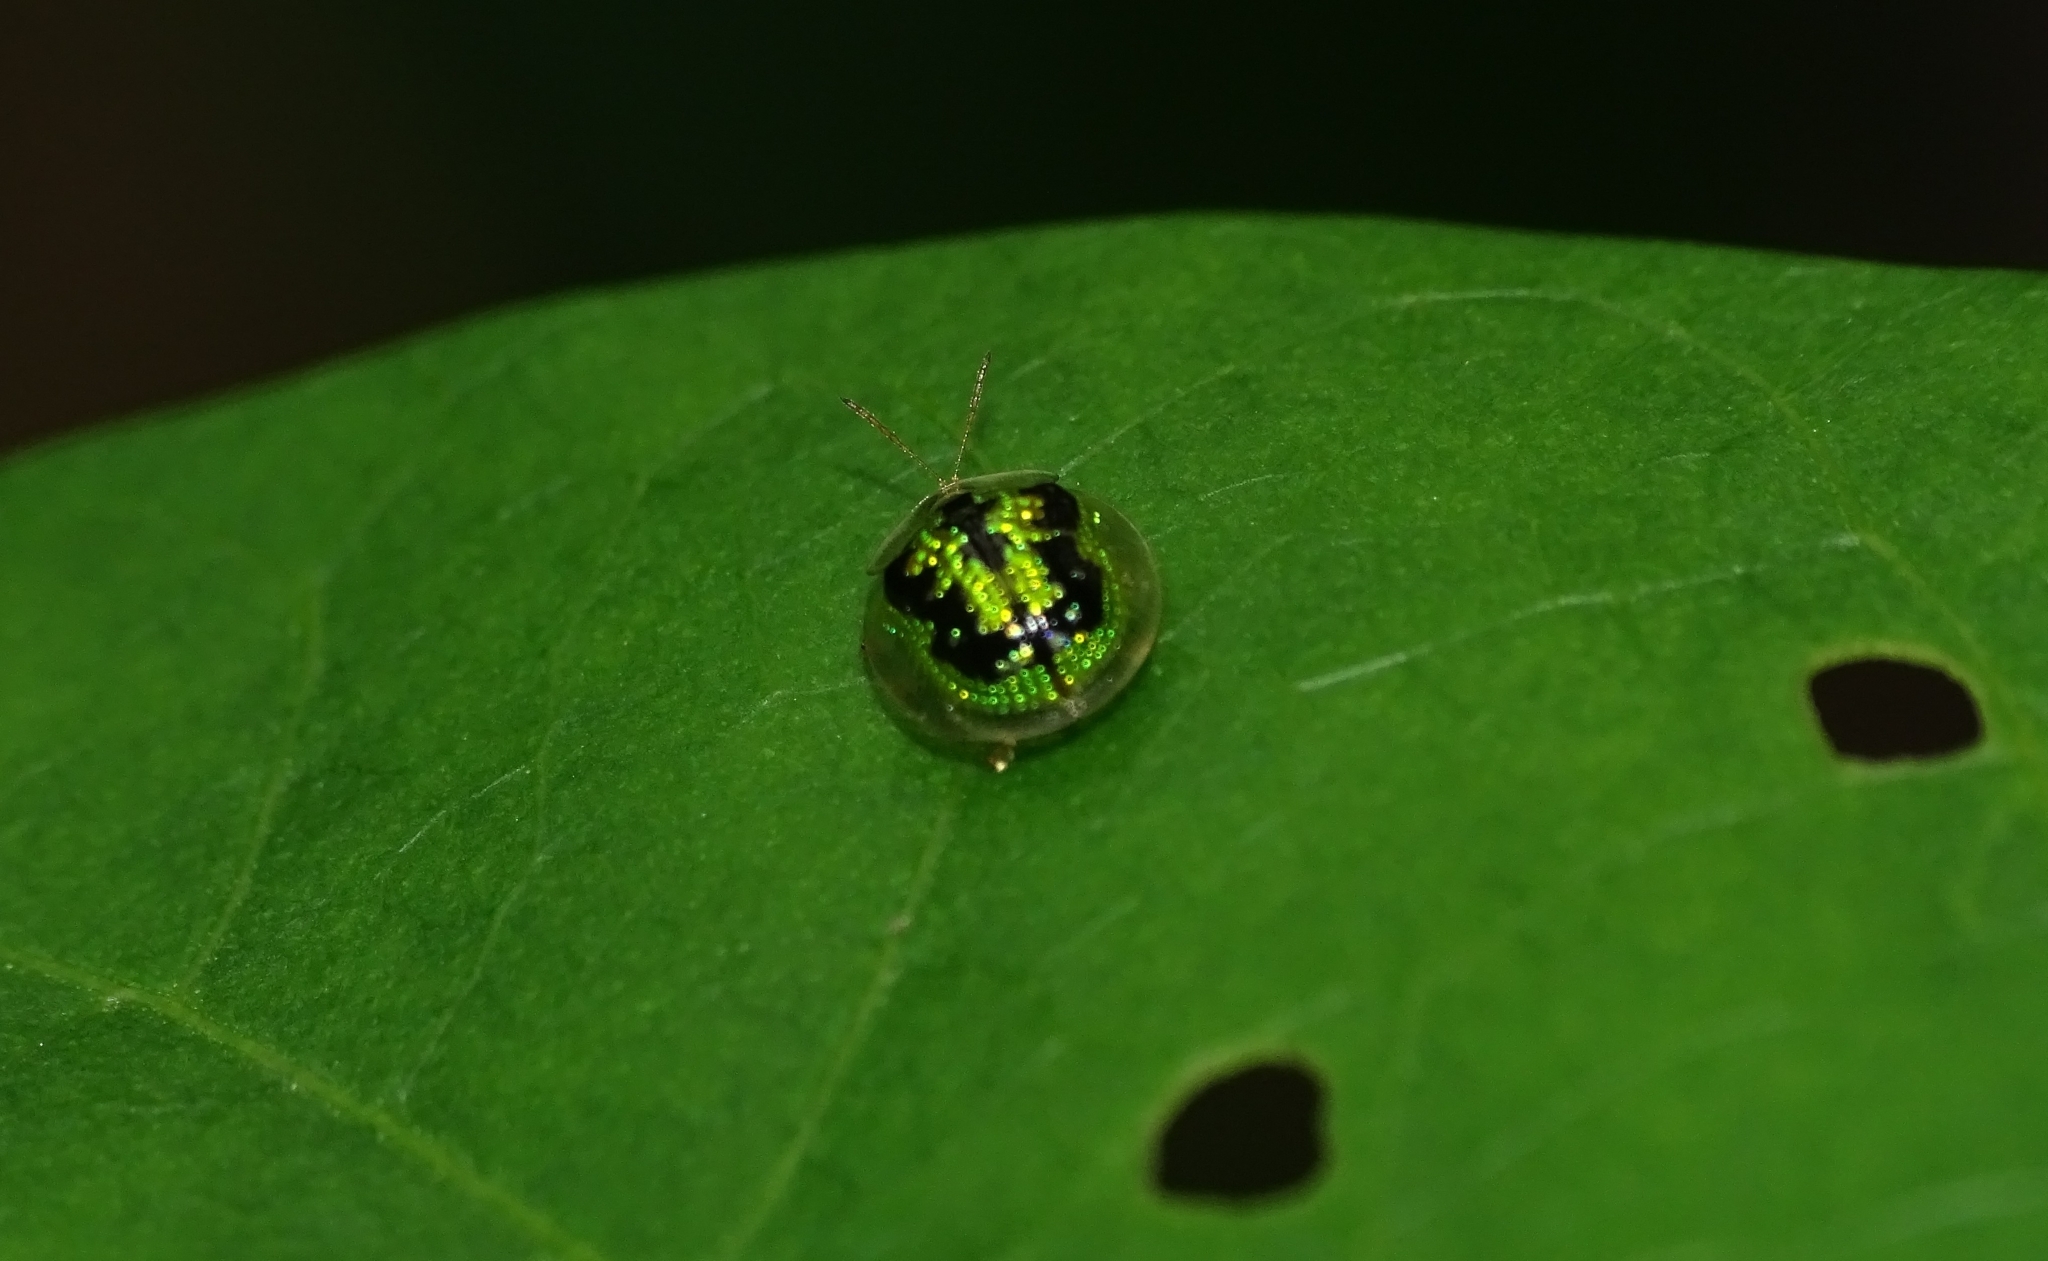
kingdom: Animalia
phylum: Arthropoda
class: Insecta
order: Coleoptera
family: Chrysomelidae
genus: Cassida
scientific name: Cassida circumdata
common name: Tortoise beetle
